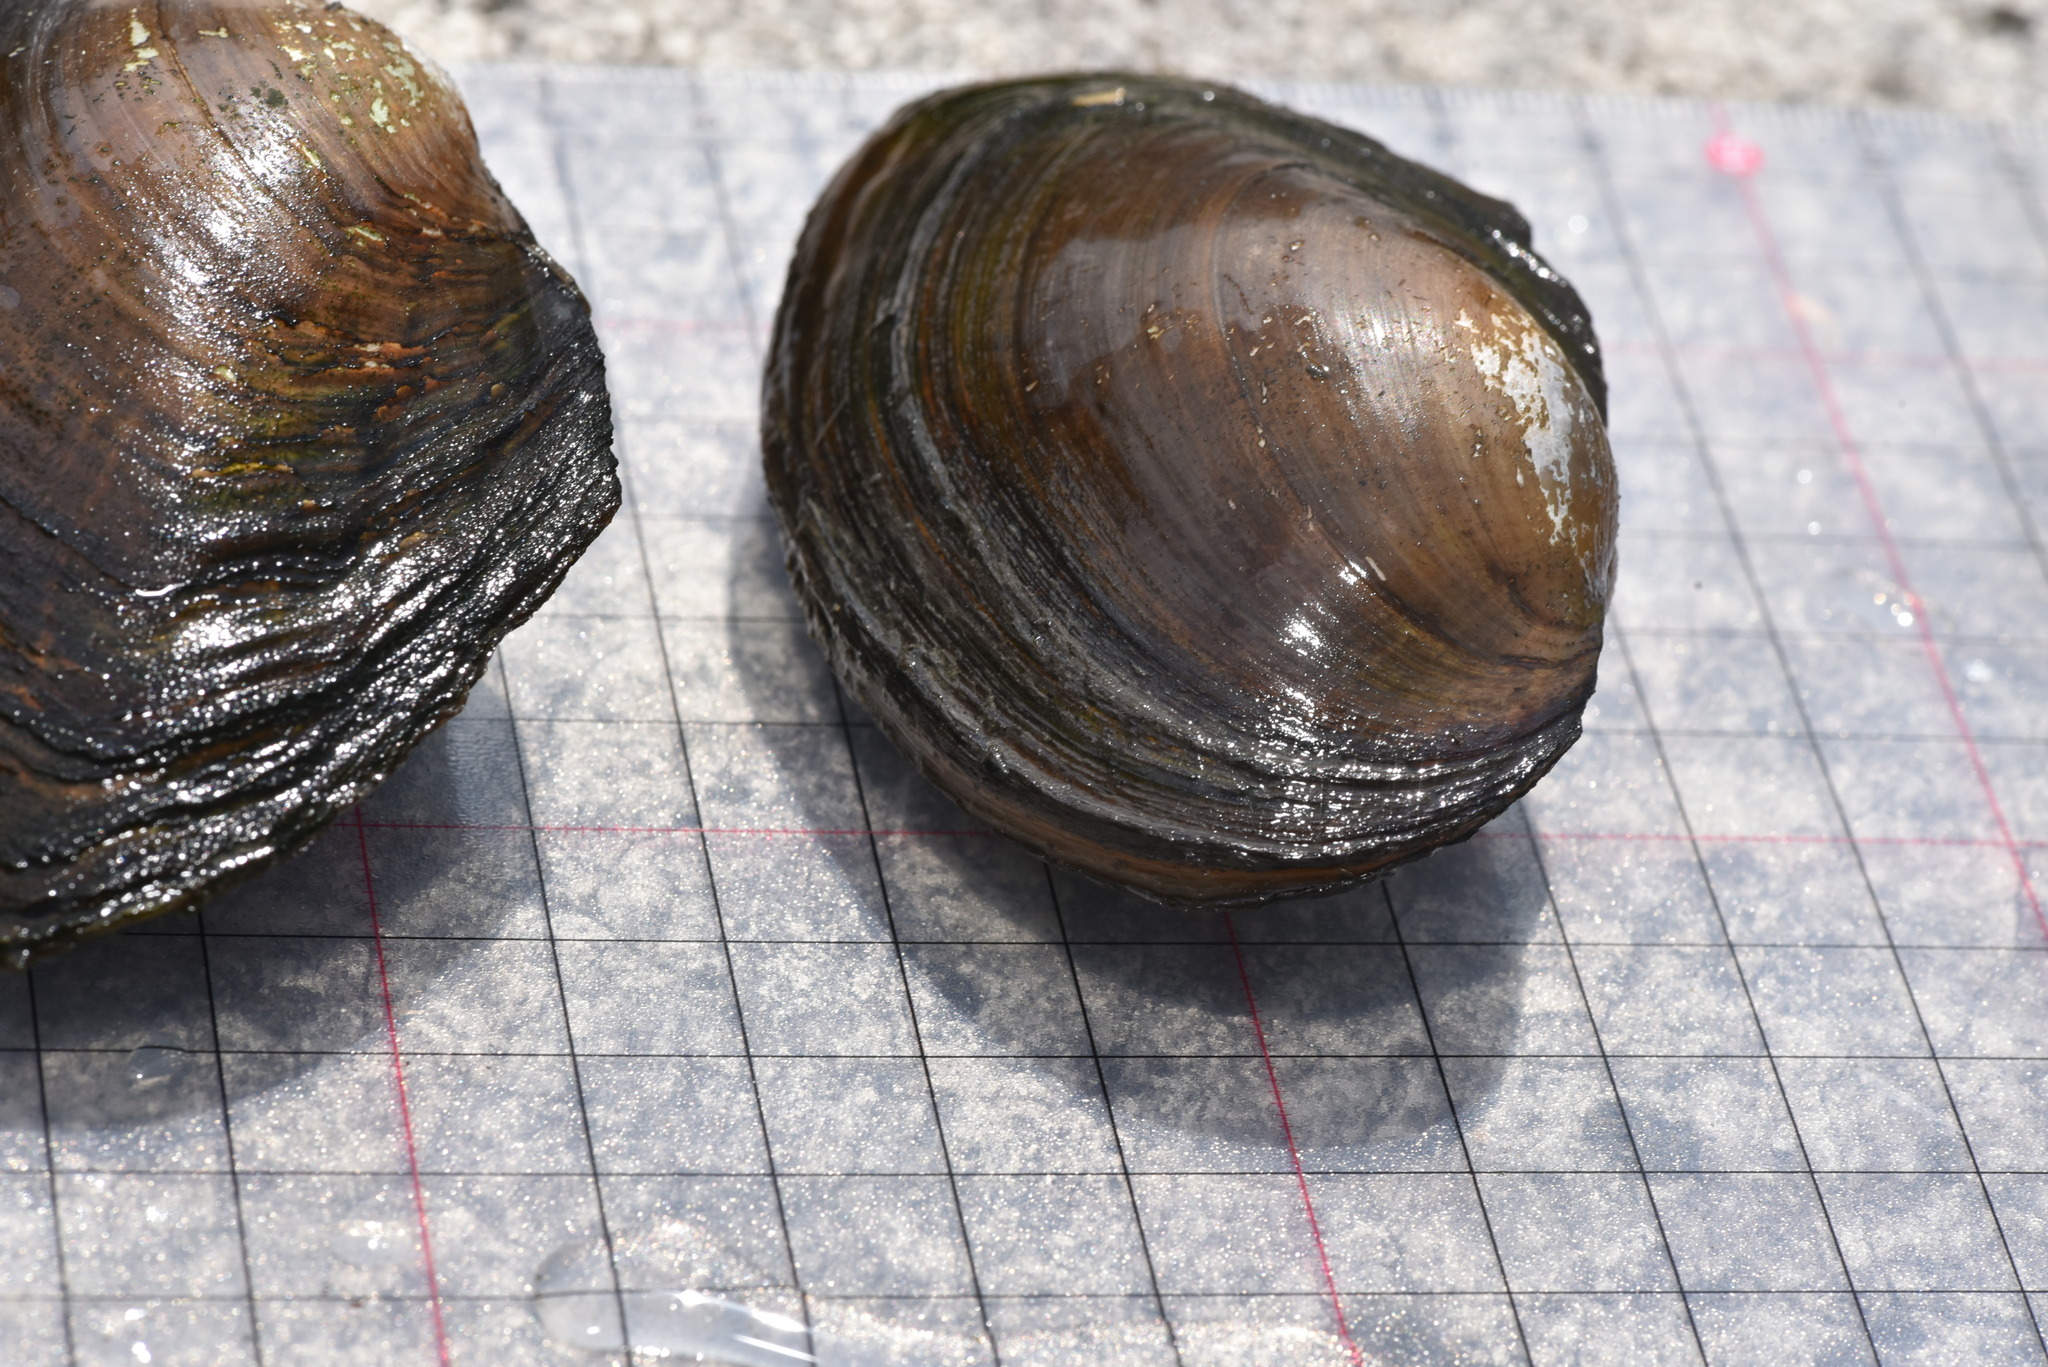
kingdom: Animalia
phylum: Mollusca
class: Bivalvia
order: Unionida
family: Unionidae
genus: Sinanodonta
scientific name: Sinanodonta woodiana
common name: Chinese pond mussel
